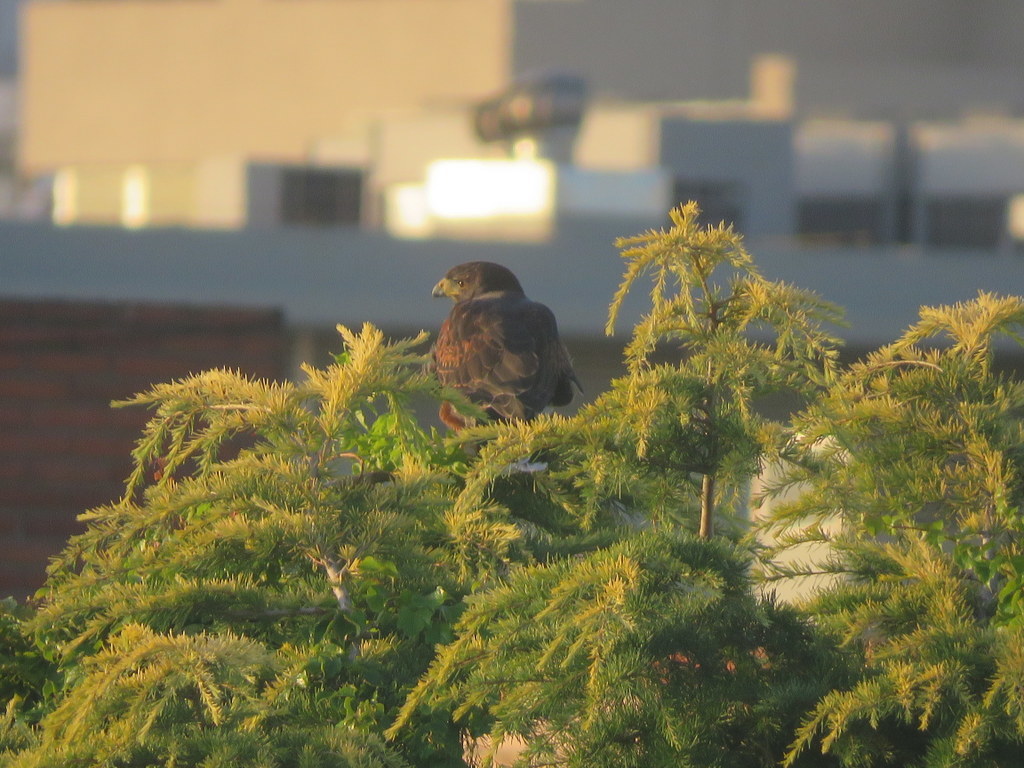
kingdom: Animalia
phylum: Chordata
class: Aves
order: Accipitriformes
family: Accipitridae
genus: Parabuteo
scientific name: Parabuteo unicinctus
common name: Harris's hawk
